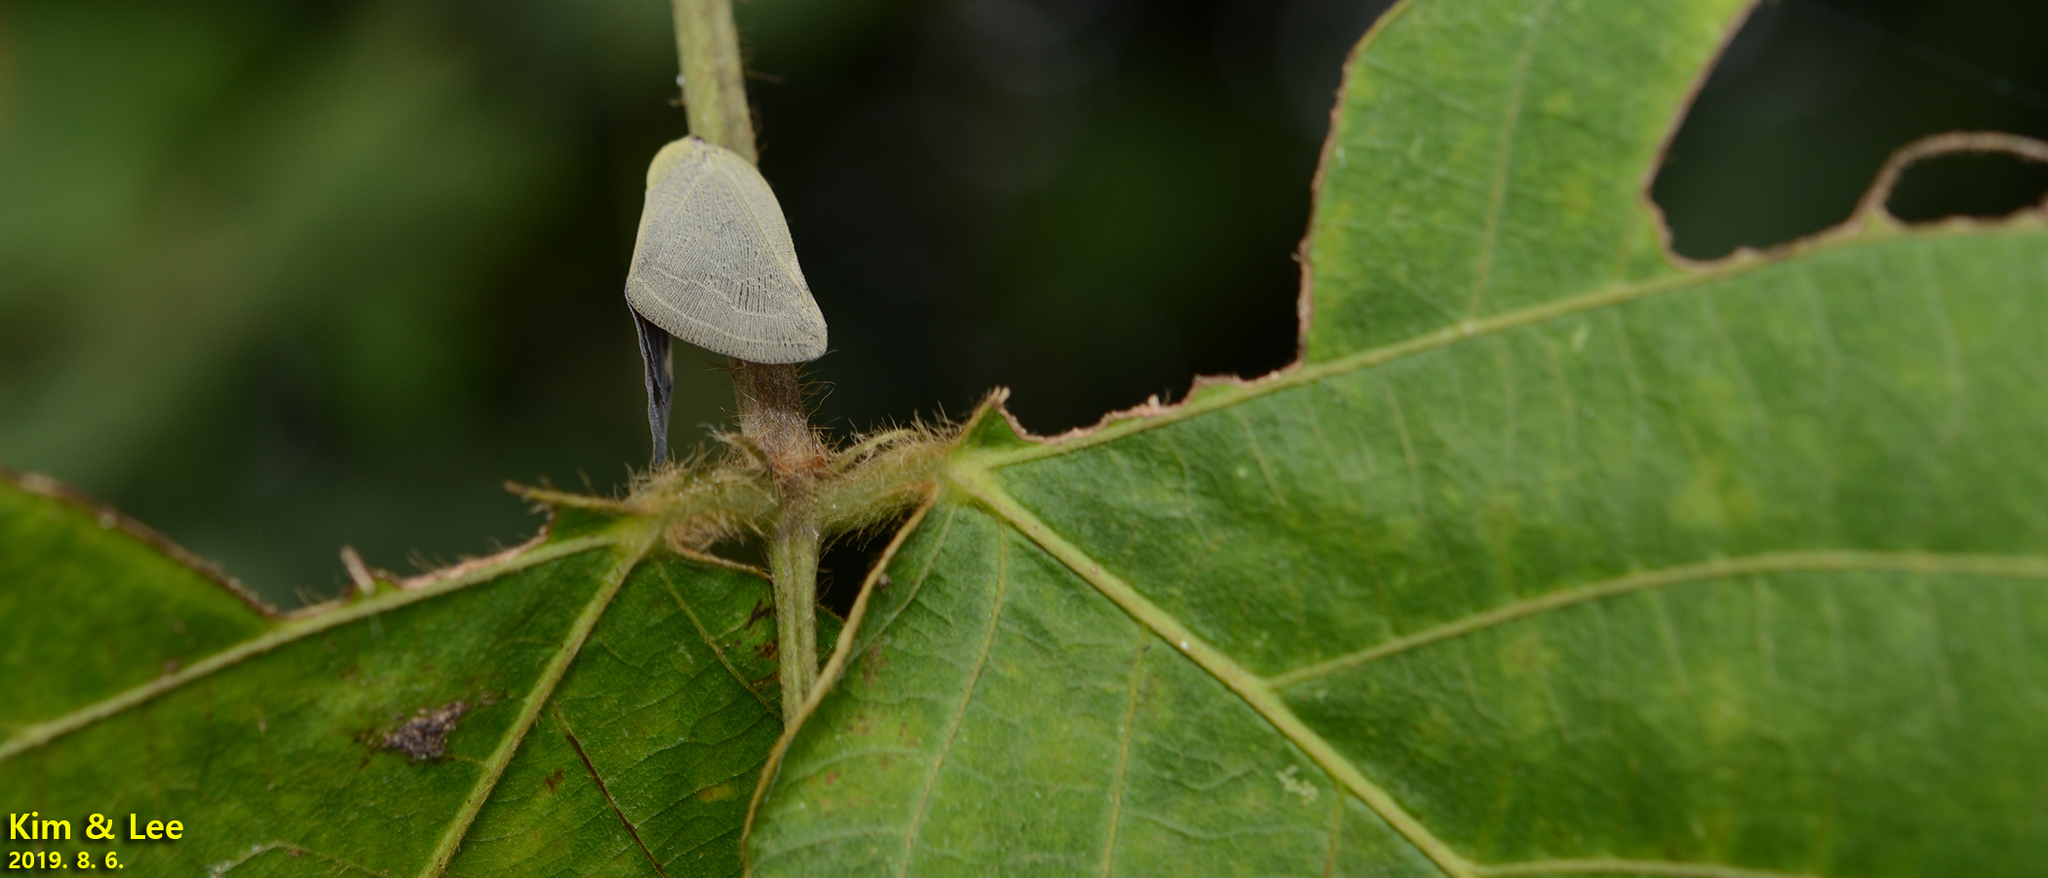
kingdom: Animalia
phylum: Arthropoda
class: Insecta
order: Hemiptera
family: Ricaniidae
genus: Ricanula
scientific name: Ricanula sublimata
